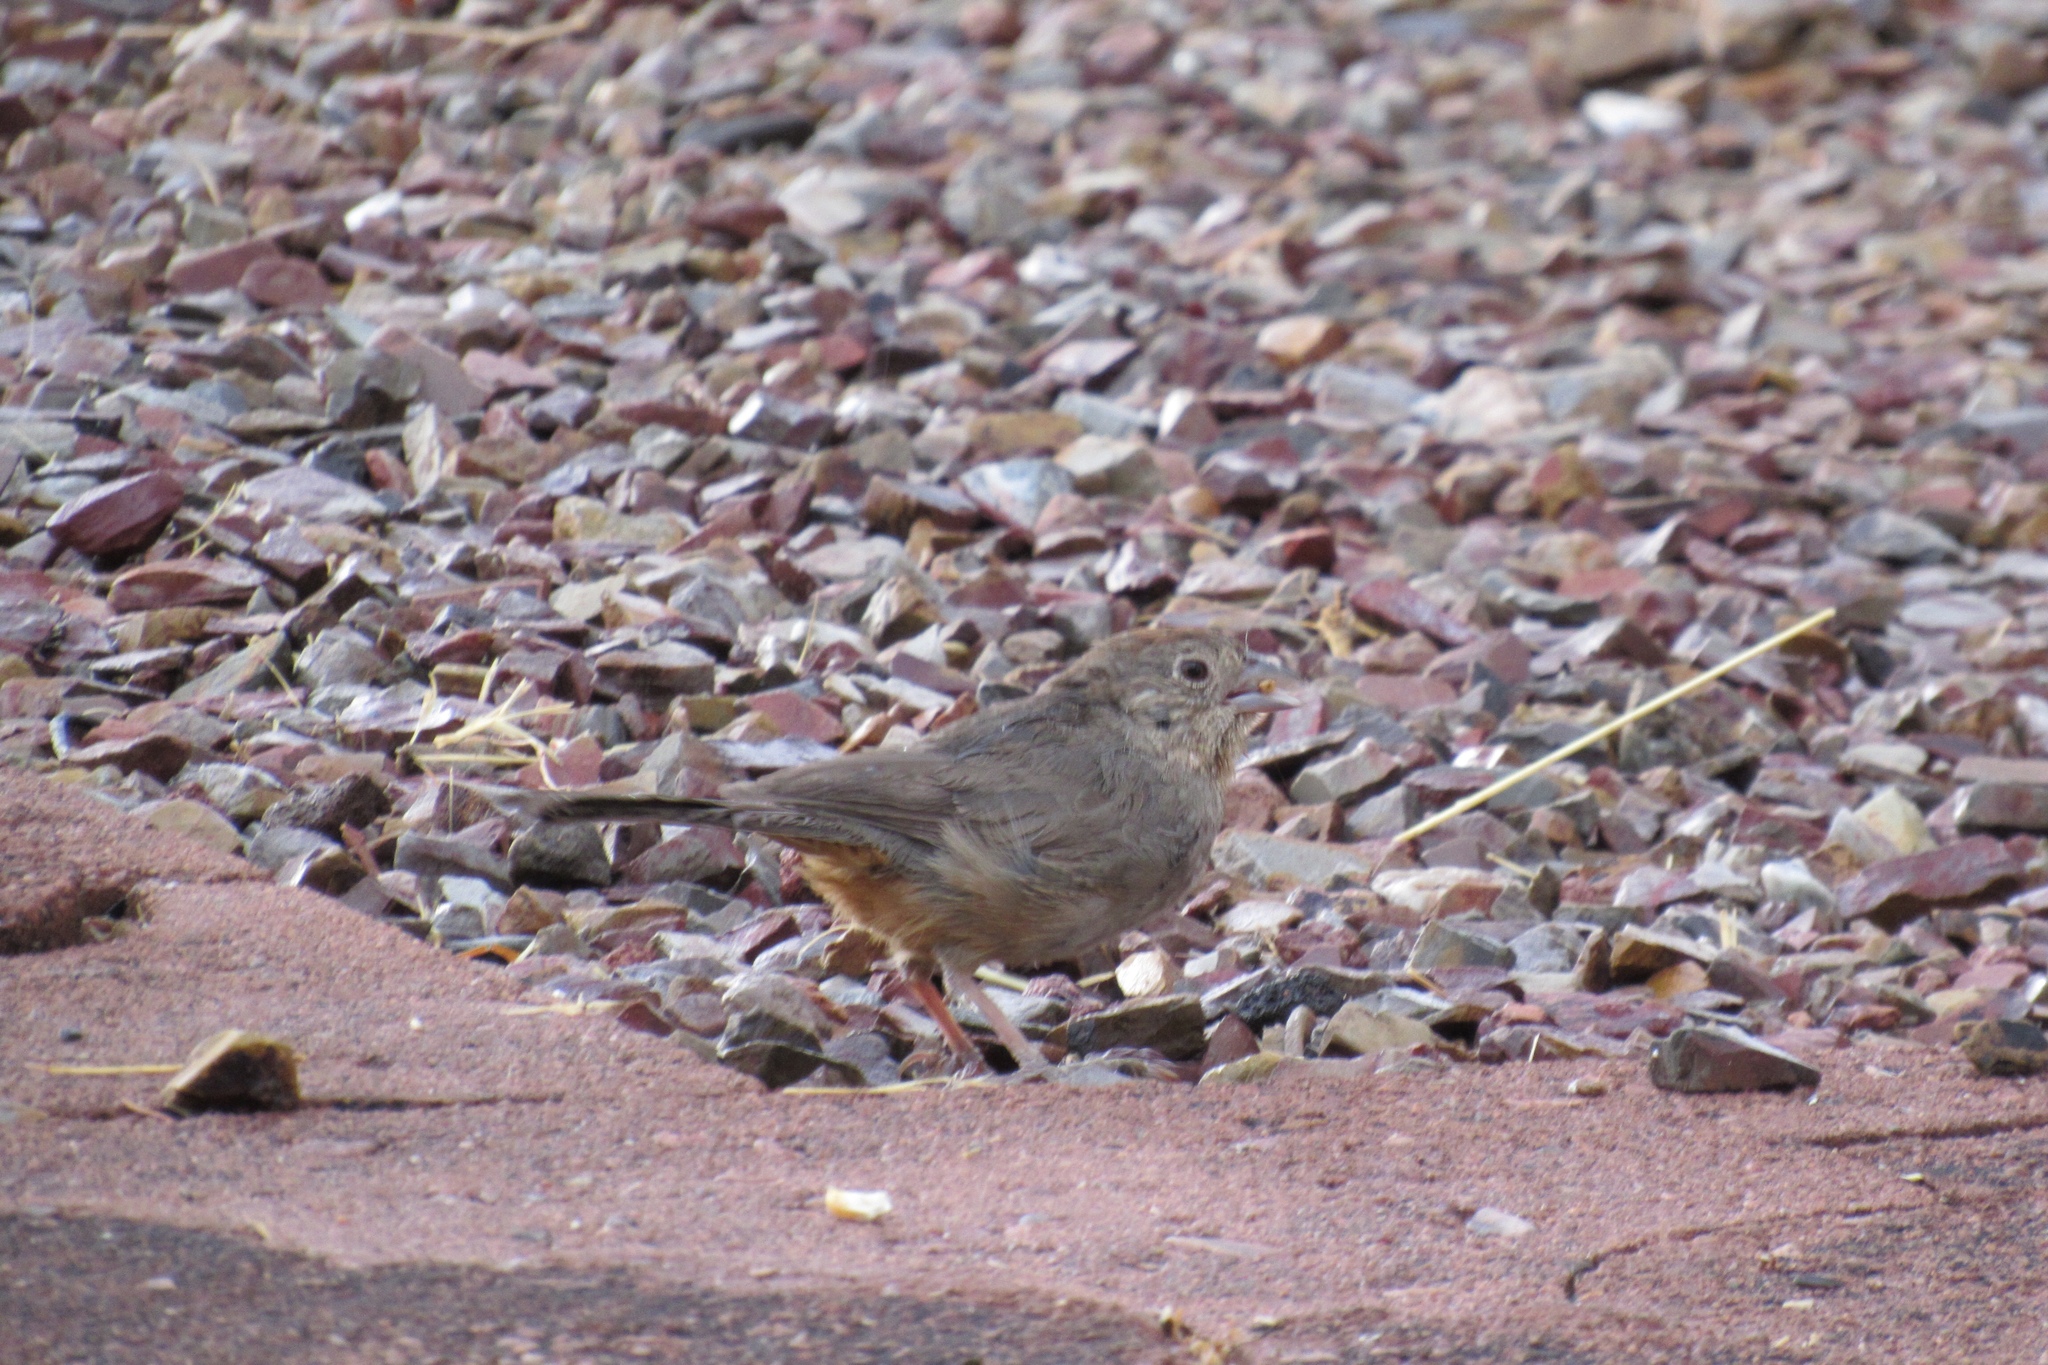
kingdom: Animalia
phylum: Chordata
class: Aves
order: Passeriformes
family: Passerellidae
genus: Melozone
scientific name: Melozone fusca
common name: Canyon towhee
